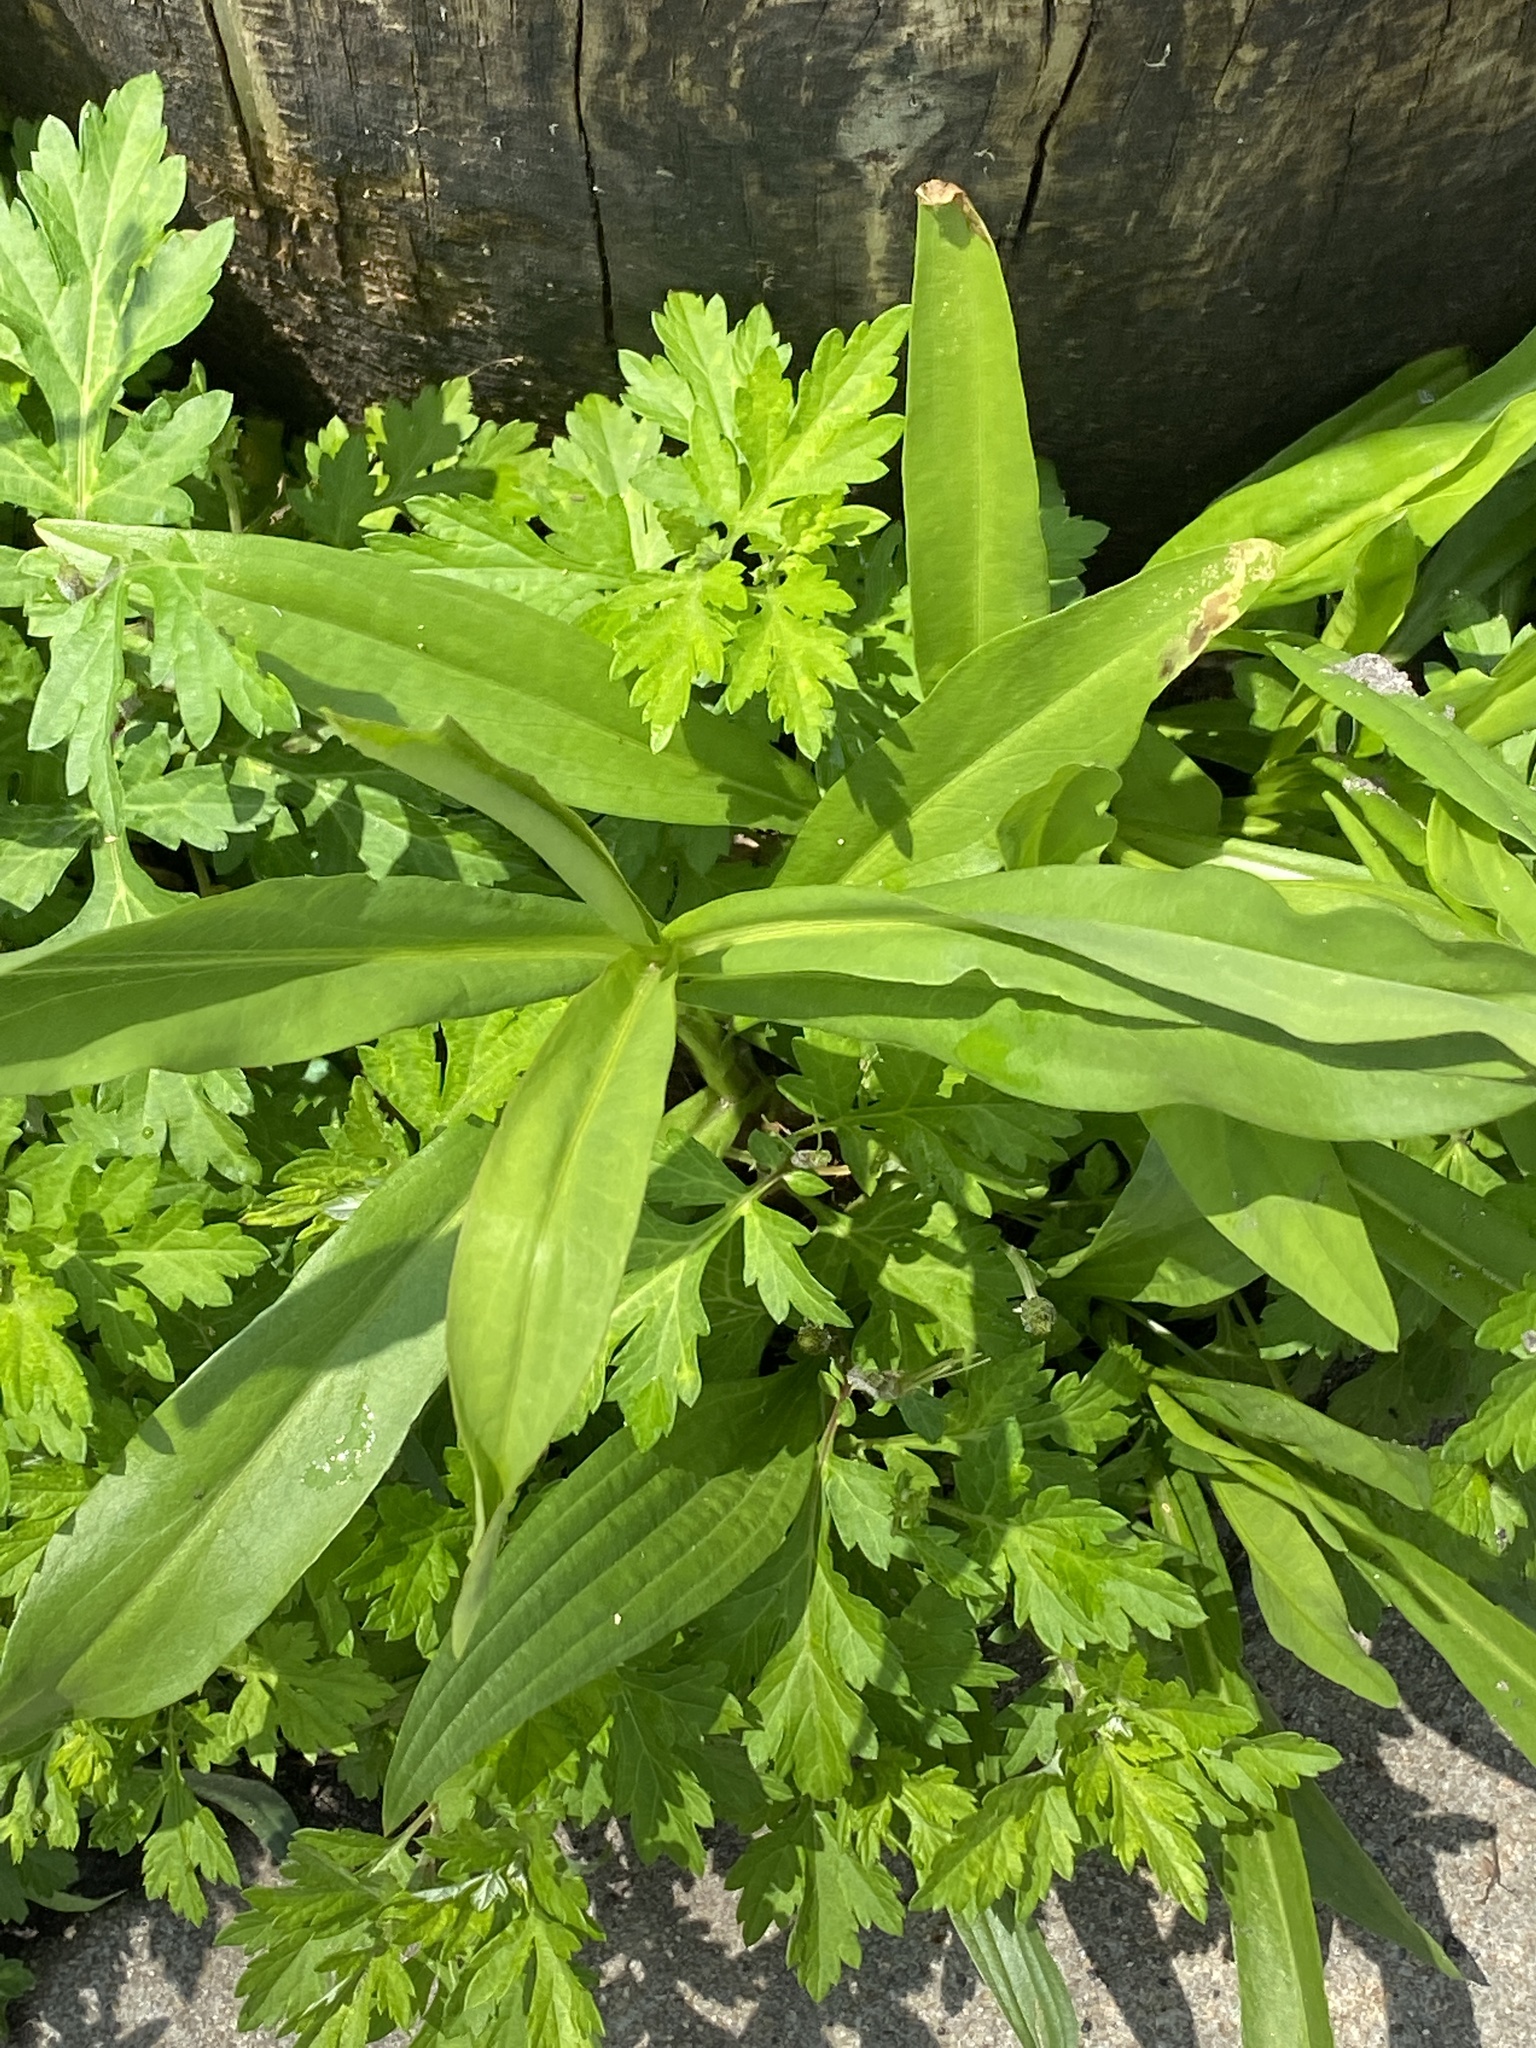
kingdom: Plantae
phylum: Tracheophyta
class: Magnoliopsida
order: Asterales
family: Asteraceae
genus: Solidago
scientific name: Solidago sempervirens
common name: Salt-marsh goldenrod
